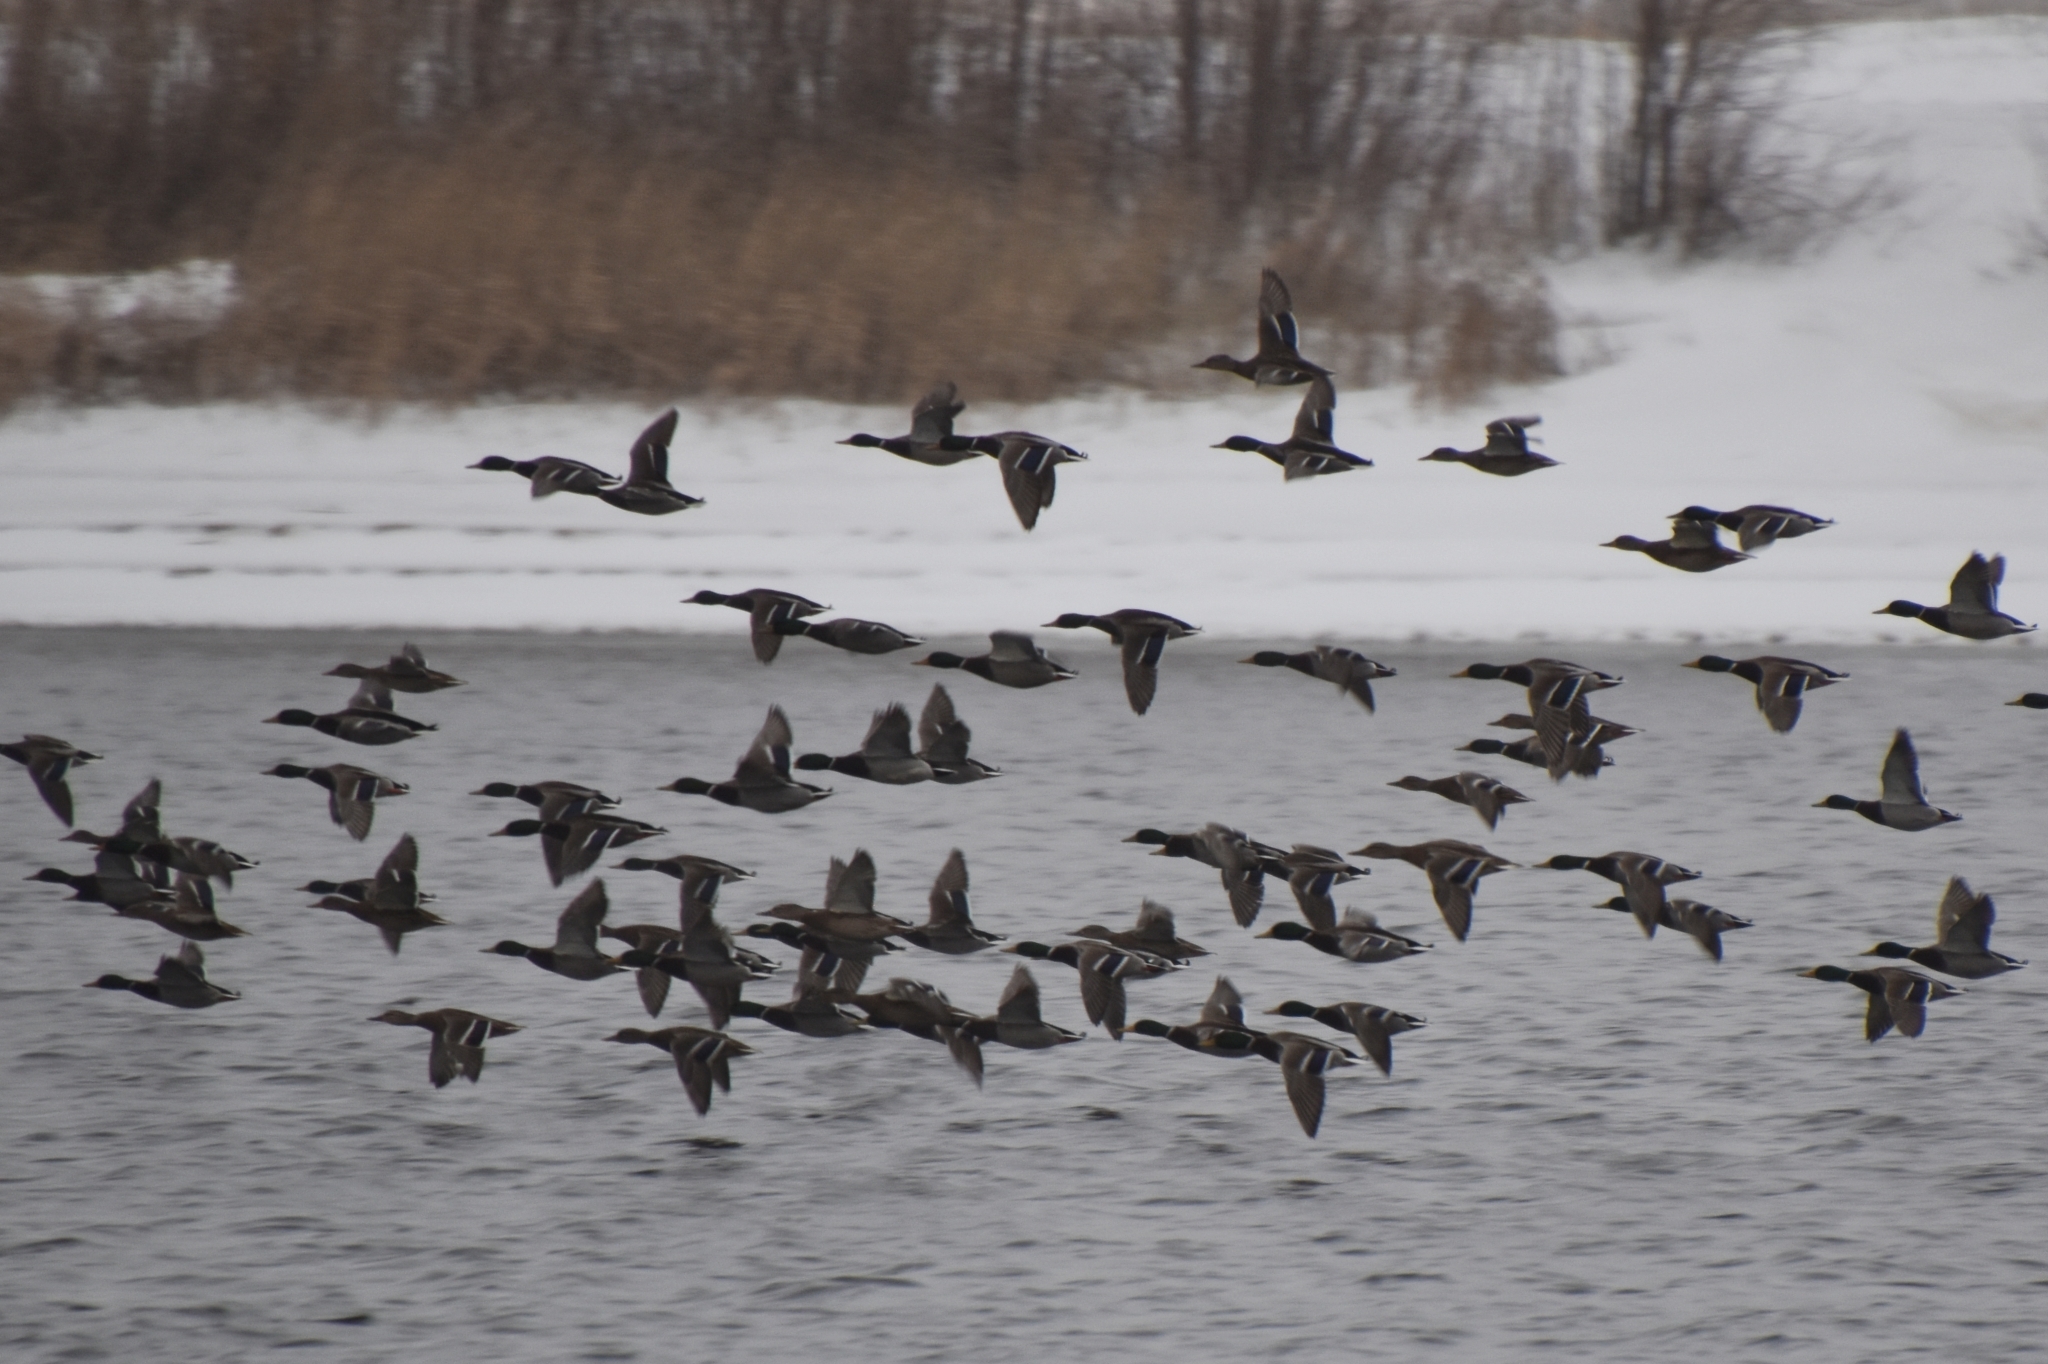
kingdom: Animalia
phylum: Chordata
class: Aves
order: Anseriformes
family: Anatidae
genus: Anas
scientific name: Anas platyrhynchos
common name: Mallard
